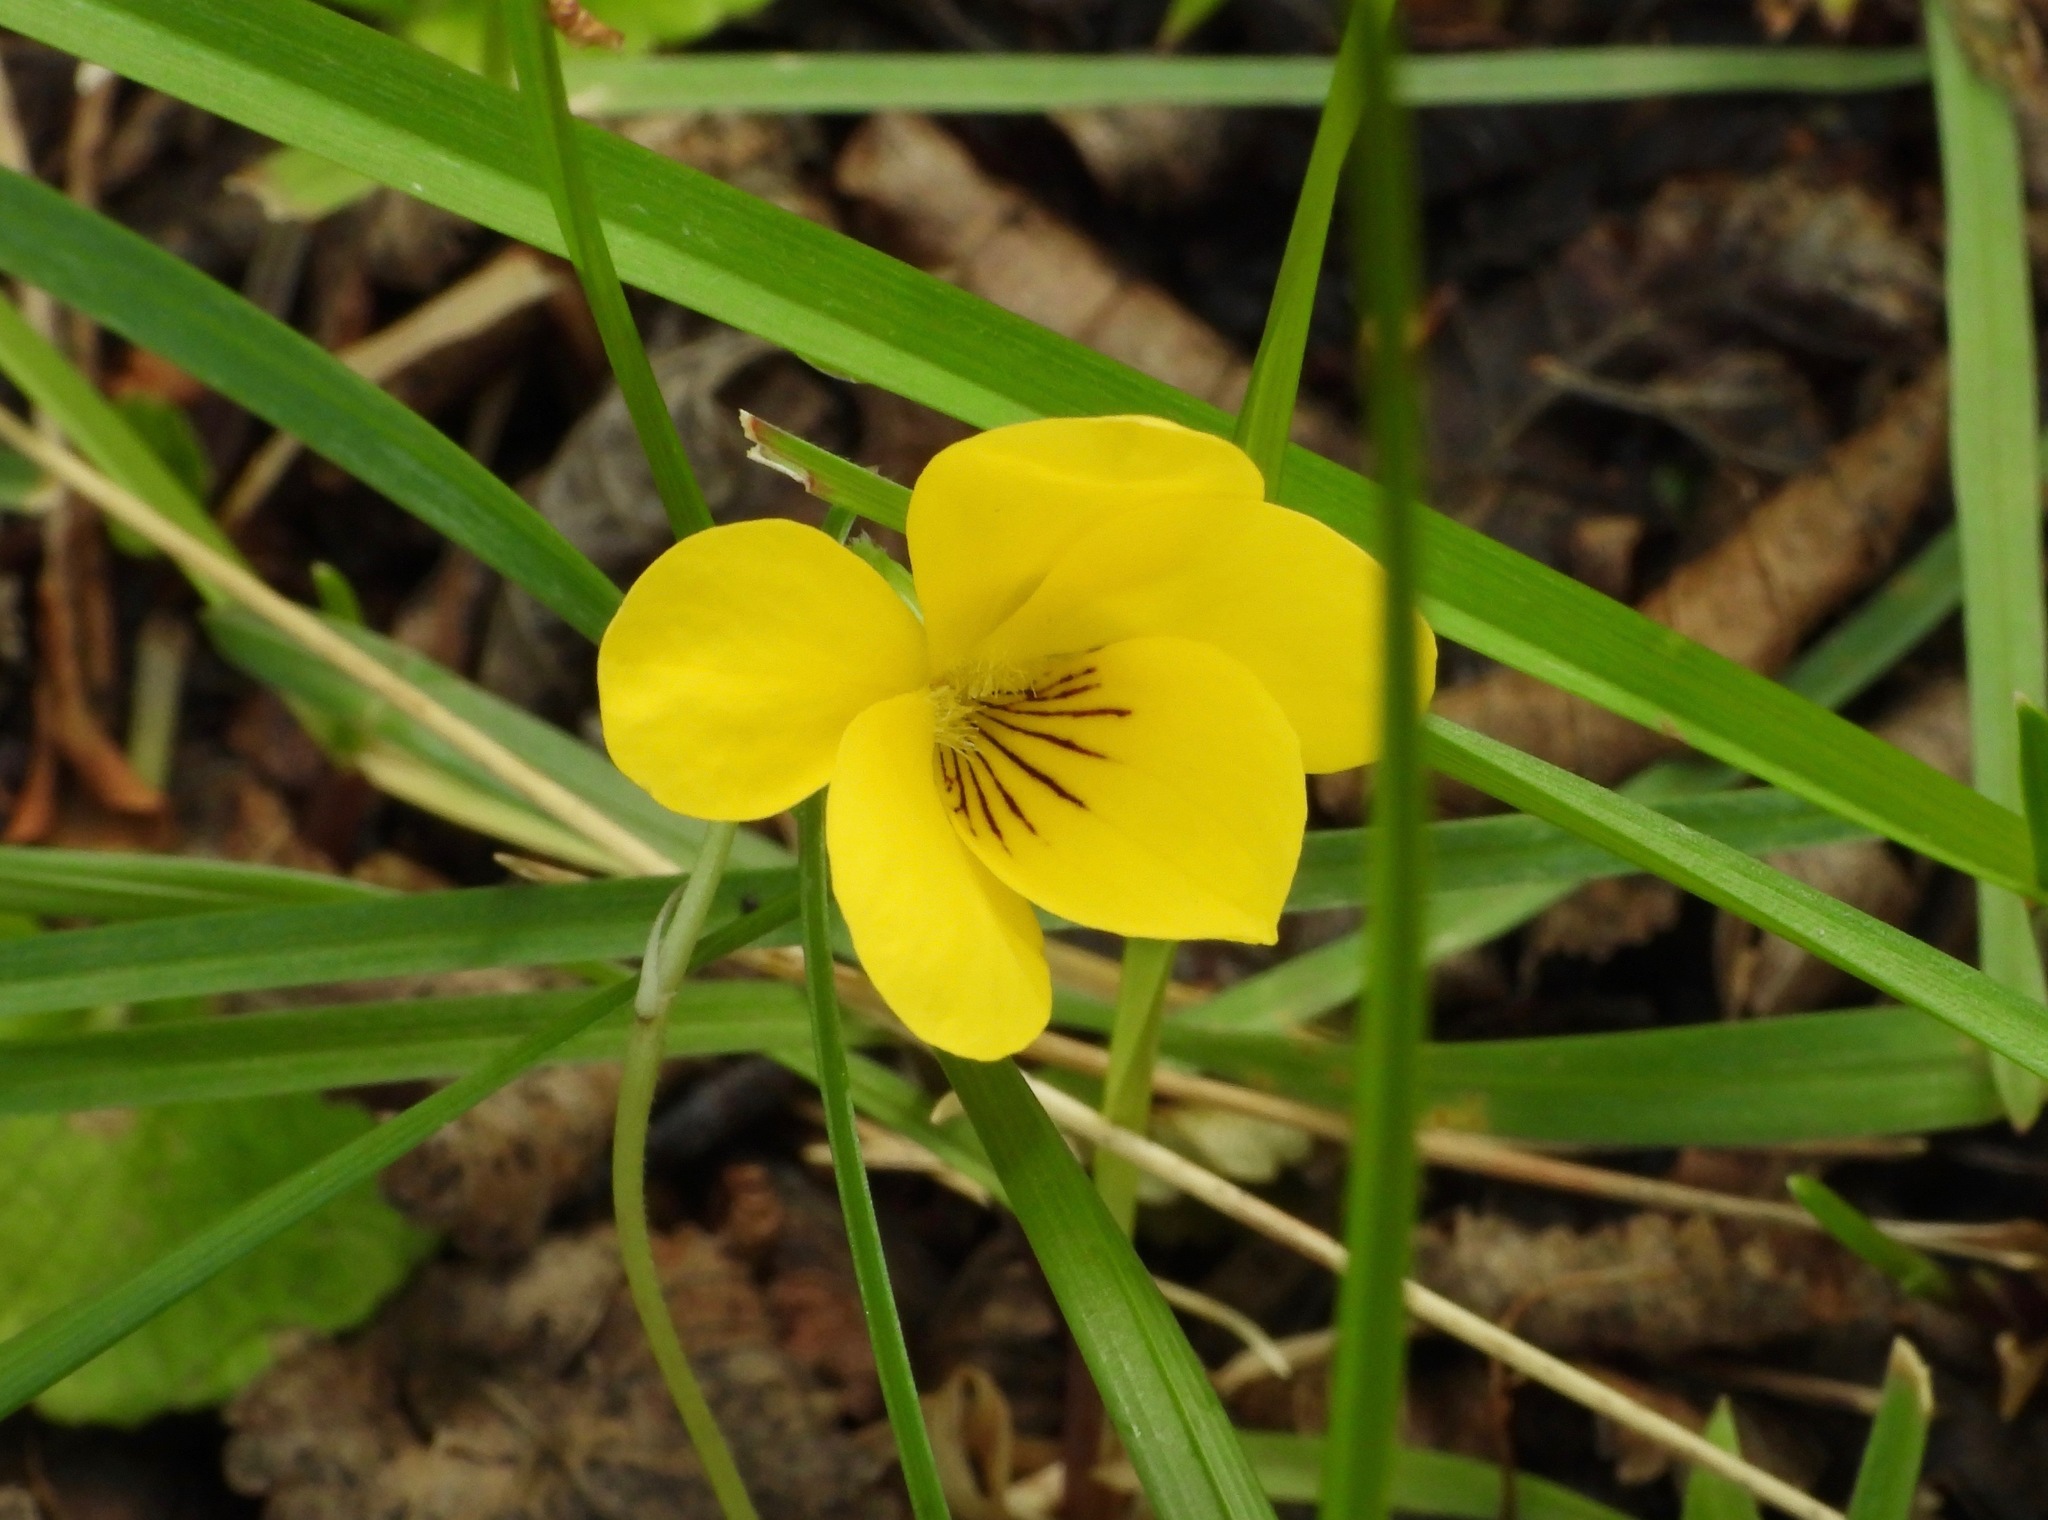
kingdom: Plantae
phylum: Tracheophyta
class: Magnoliopsida
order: Malpighiales
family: Violaceae
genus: Viola
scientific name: Viola magellanica
